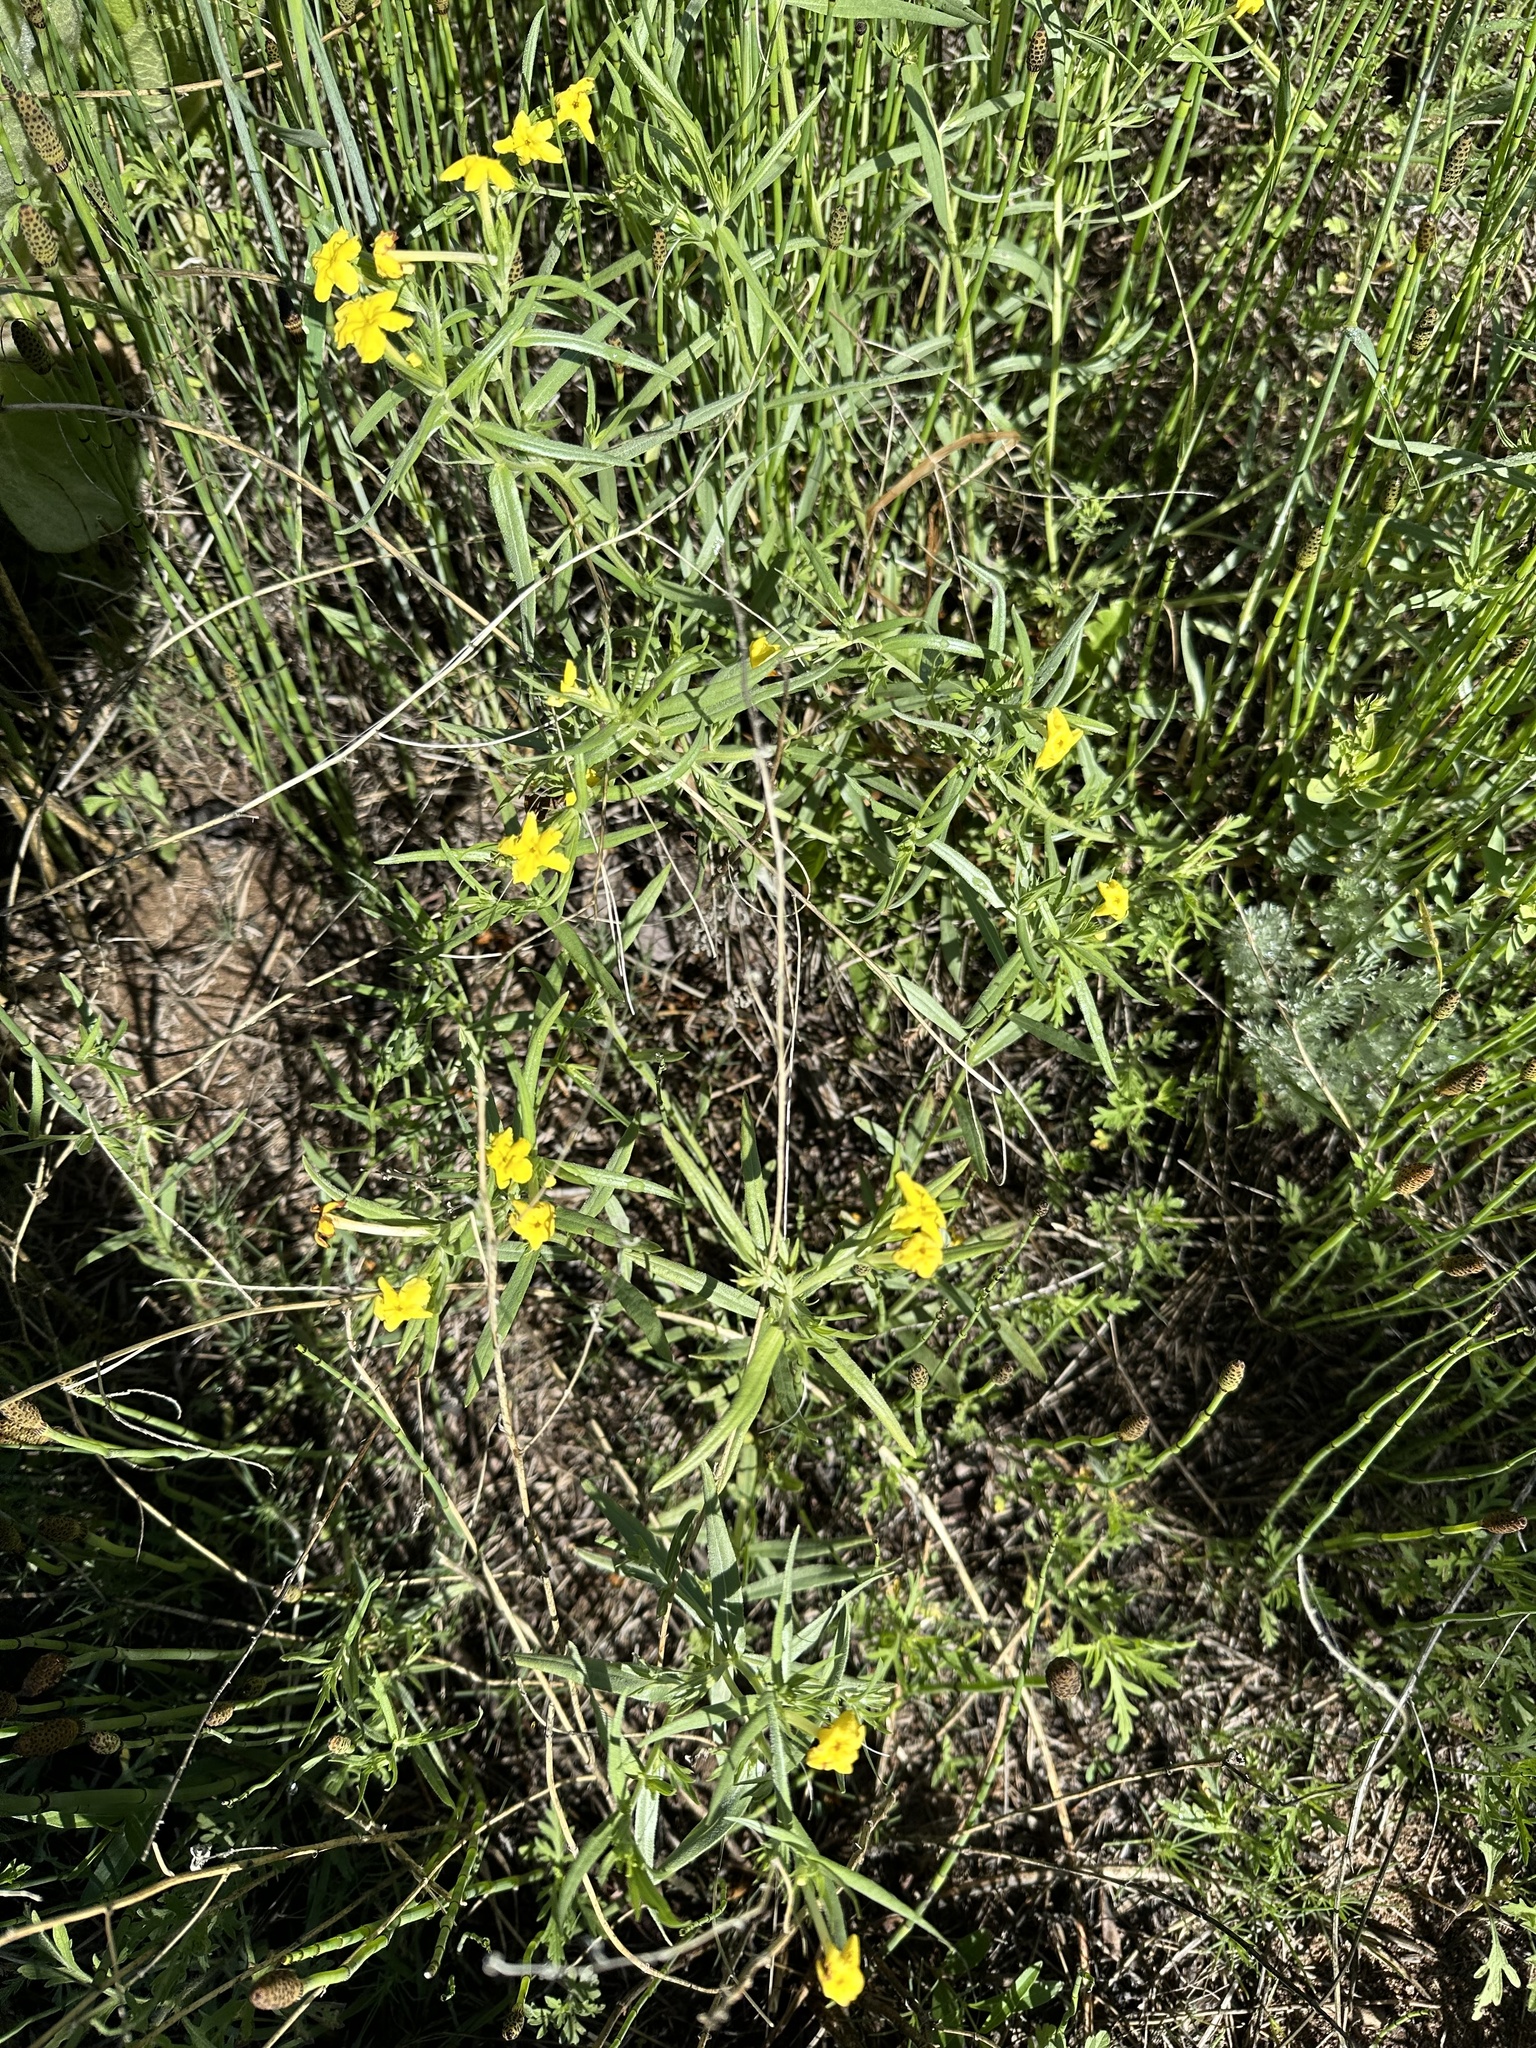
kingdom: Plantae
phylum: Tracheophyta
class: Magnoliopsida
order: Boraginales
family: Boraginaceae
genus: Lithospermum
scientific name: Lithospermum incisum
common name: Fringed gromwell
